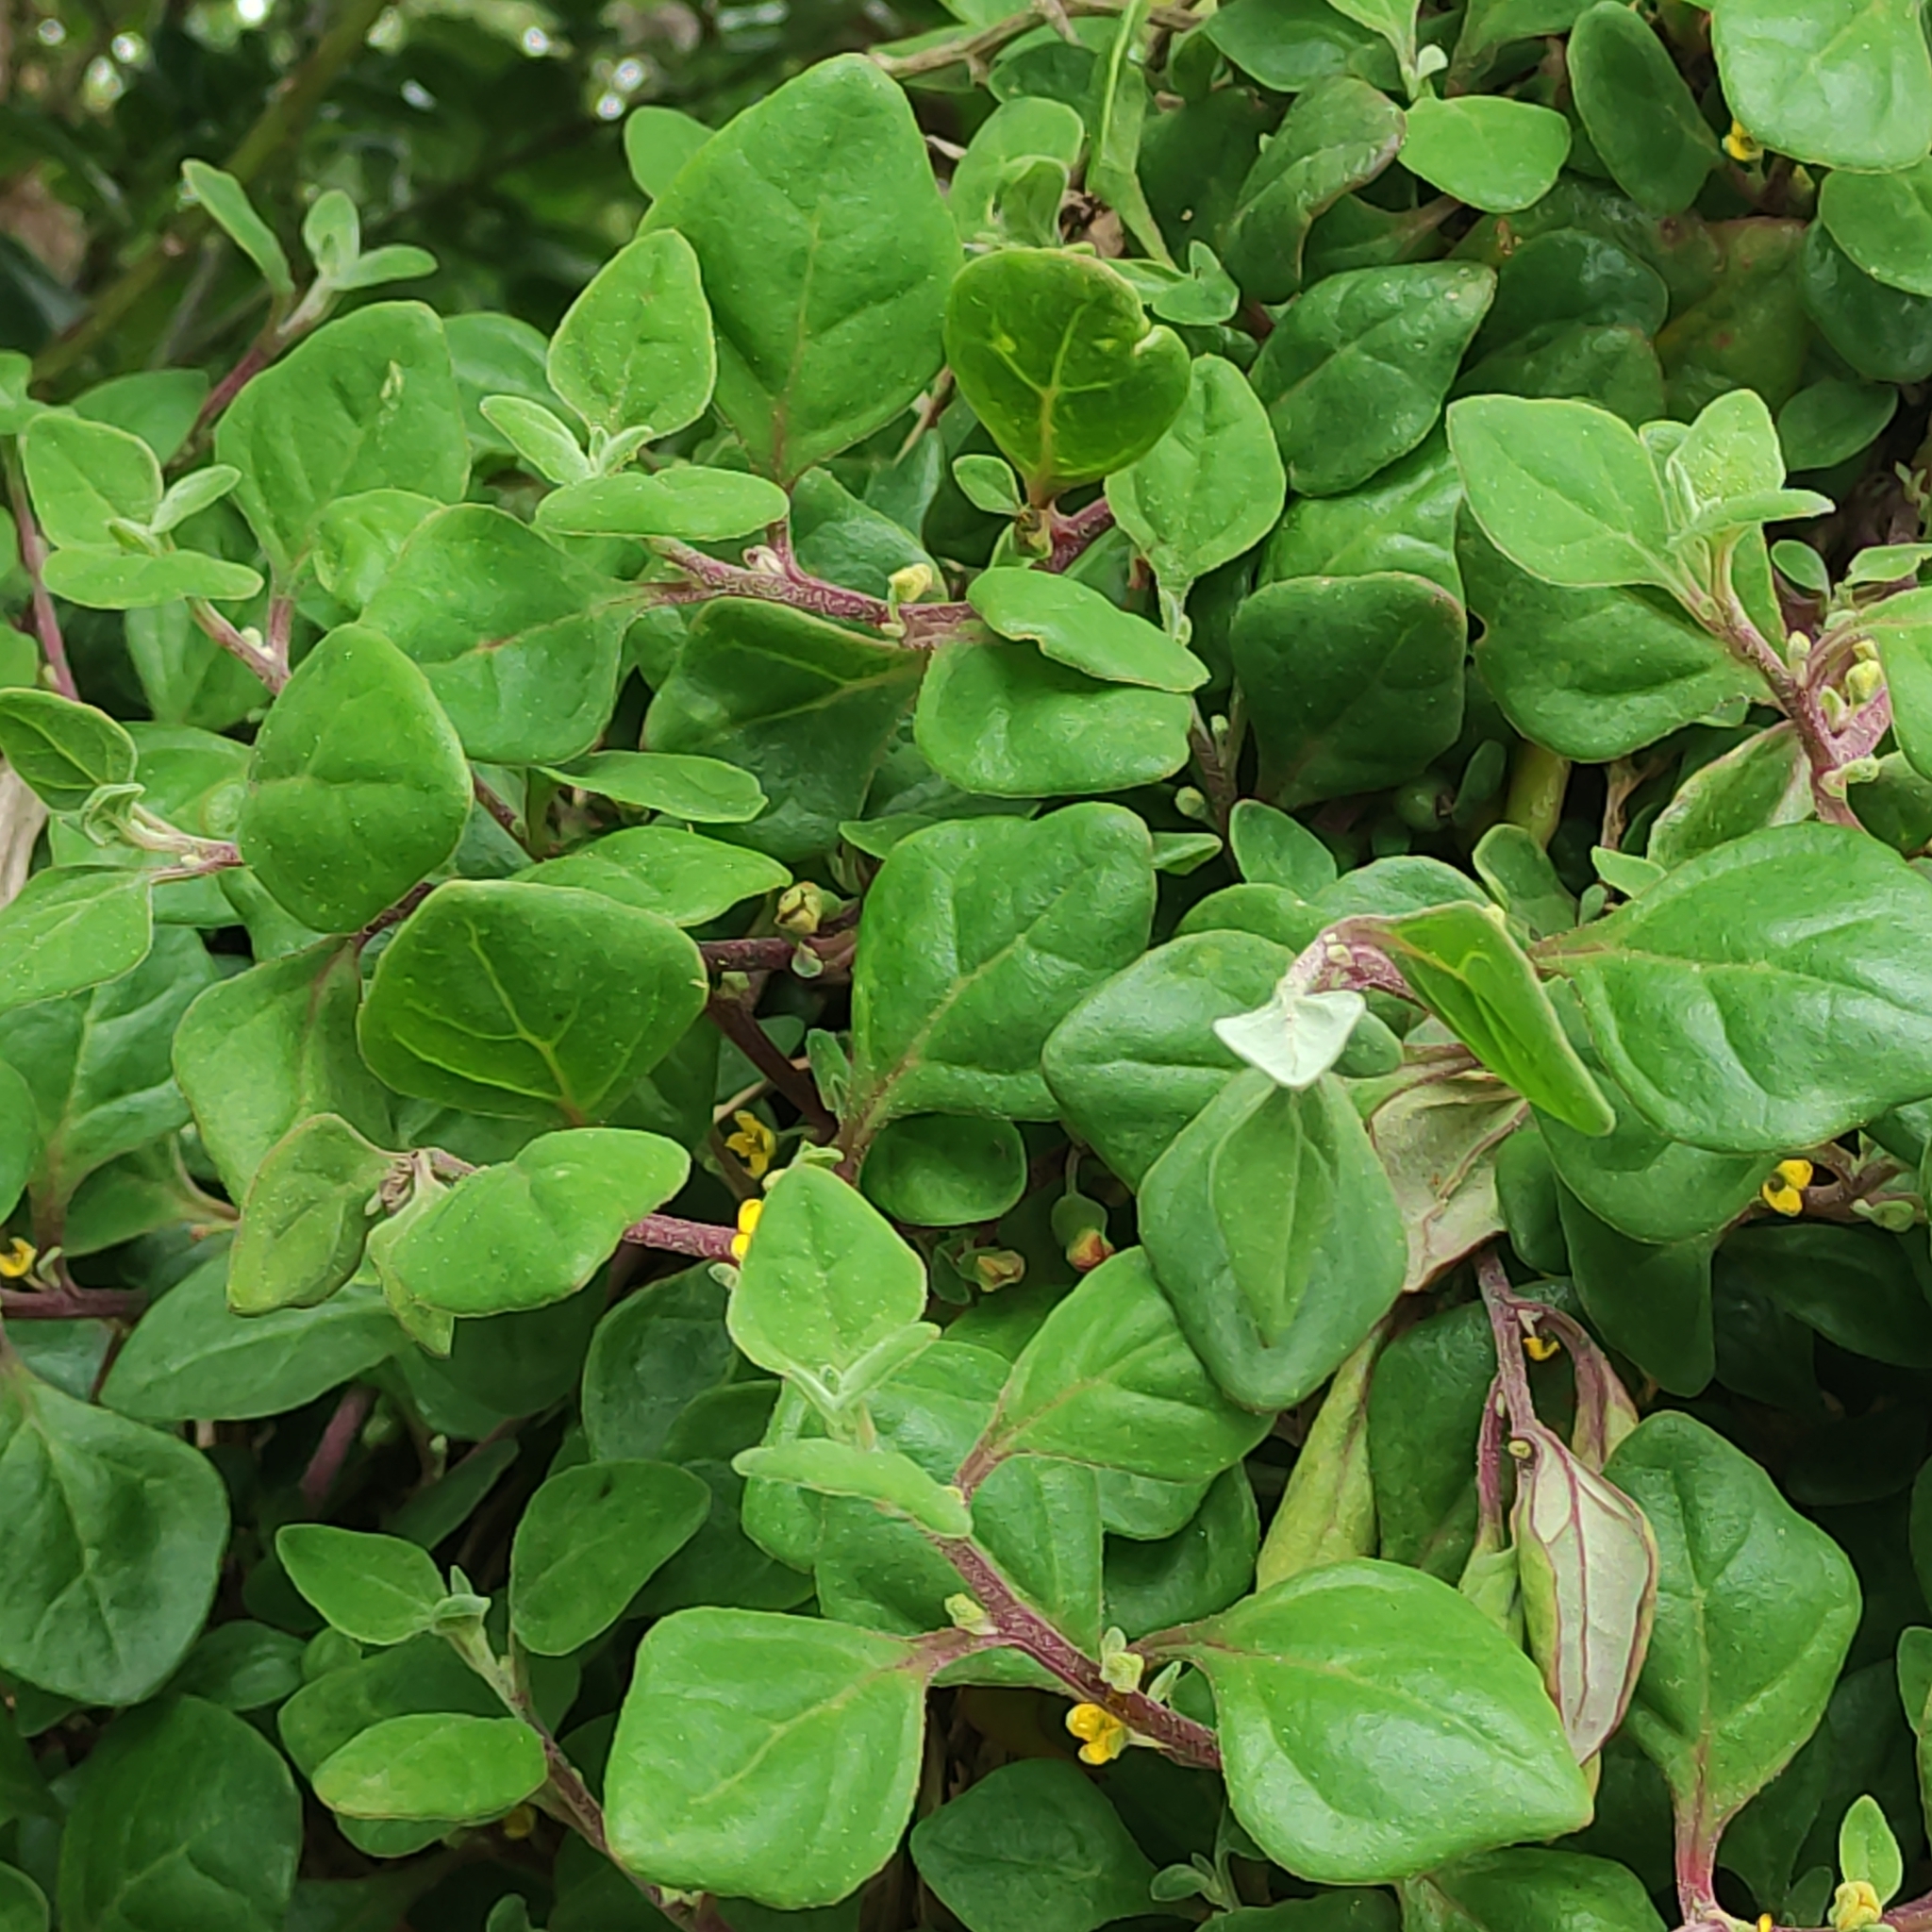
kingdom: Plantae
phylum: Tracheophyta
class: Magnoliopsida
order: Caryophyllales
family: Aizoaceae
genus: Tetragonia
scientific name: Tetragonia implexicoma
